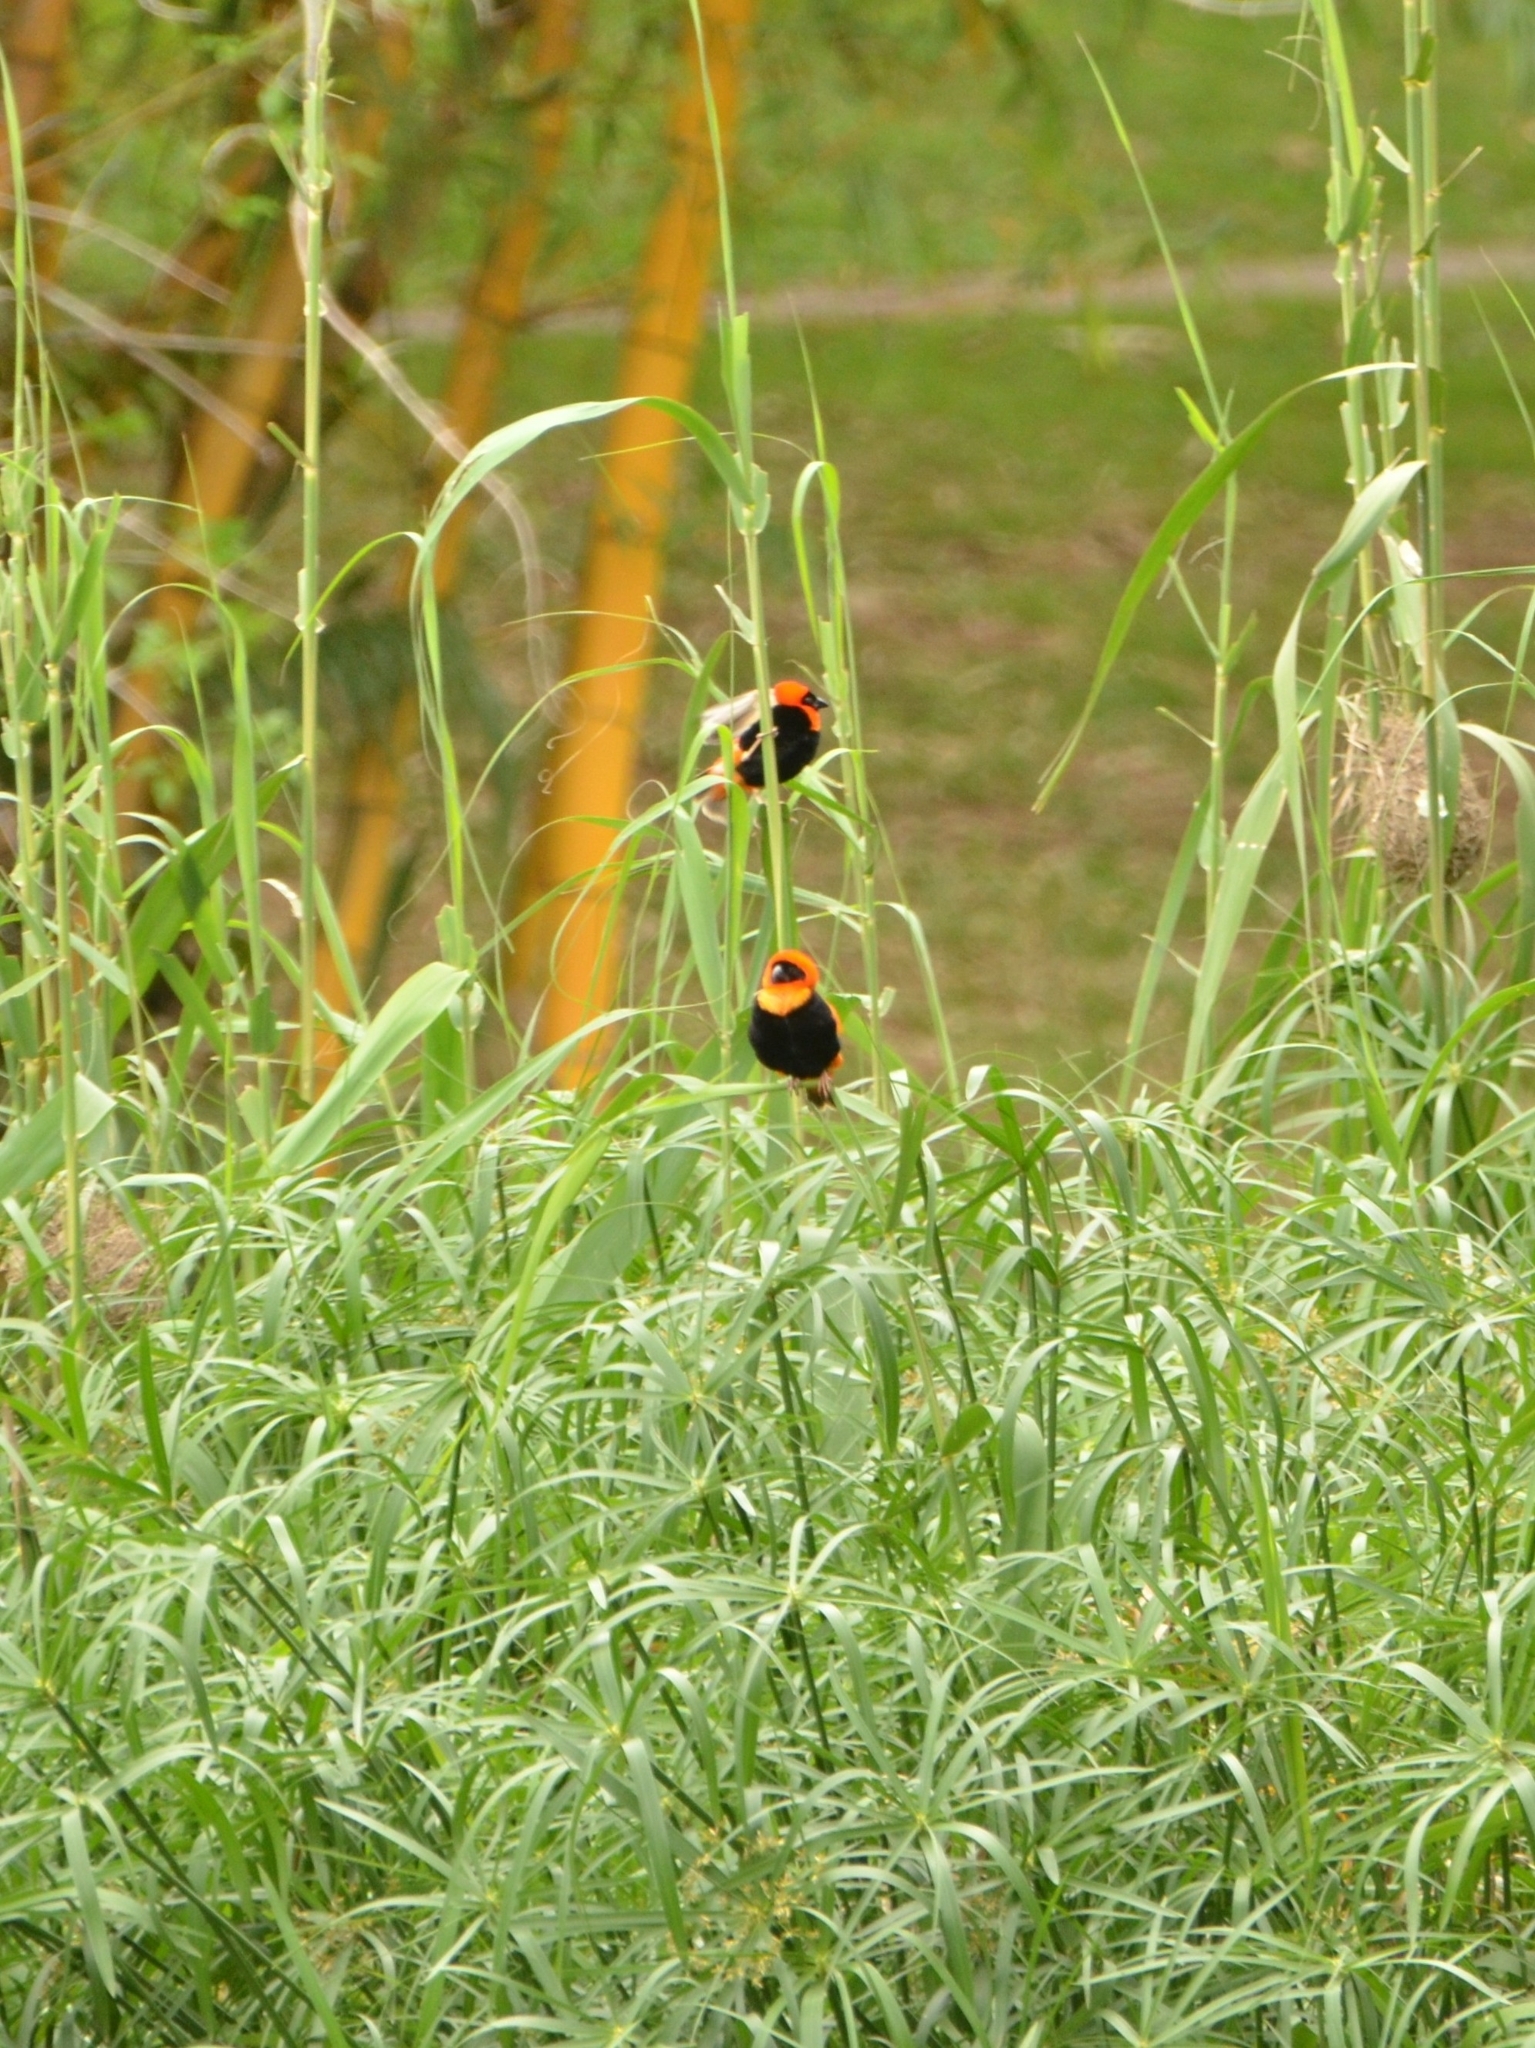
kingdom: Animalia
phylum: Chordata
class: Aves
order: Passeriformes
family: Ploceidae
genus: Euplectes
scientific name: Euplectes orix
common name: Southern red bishop
